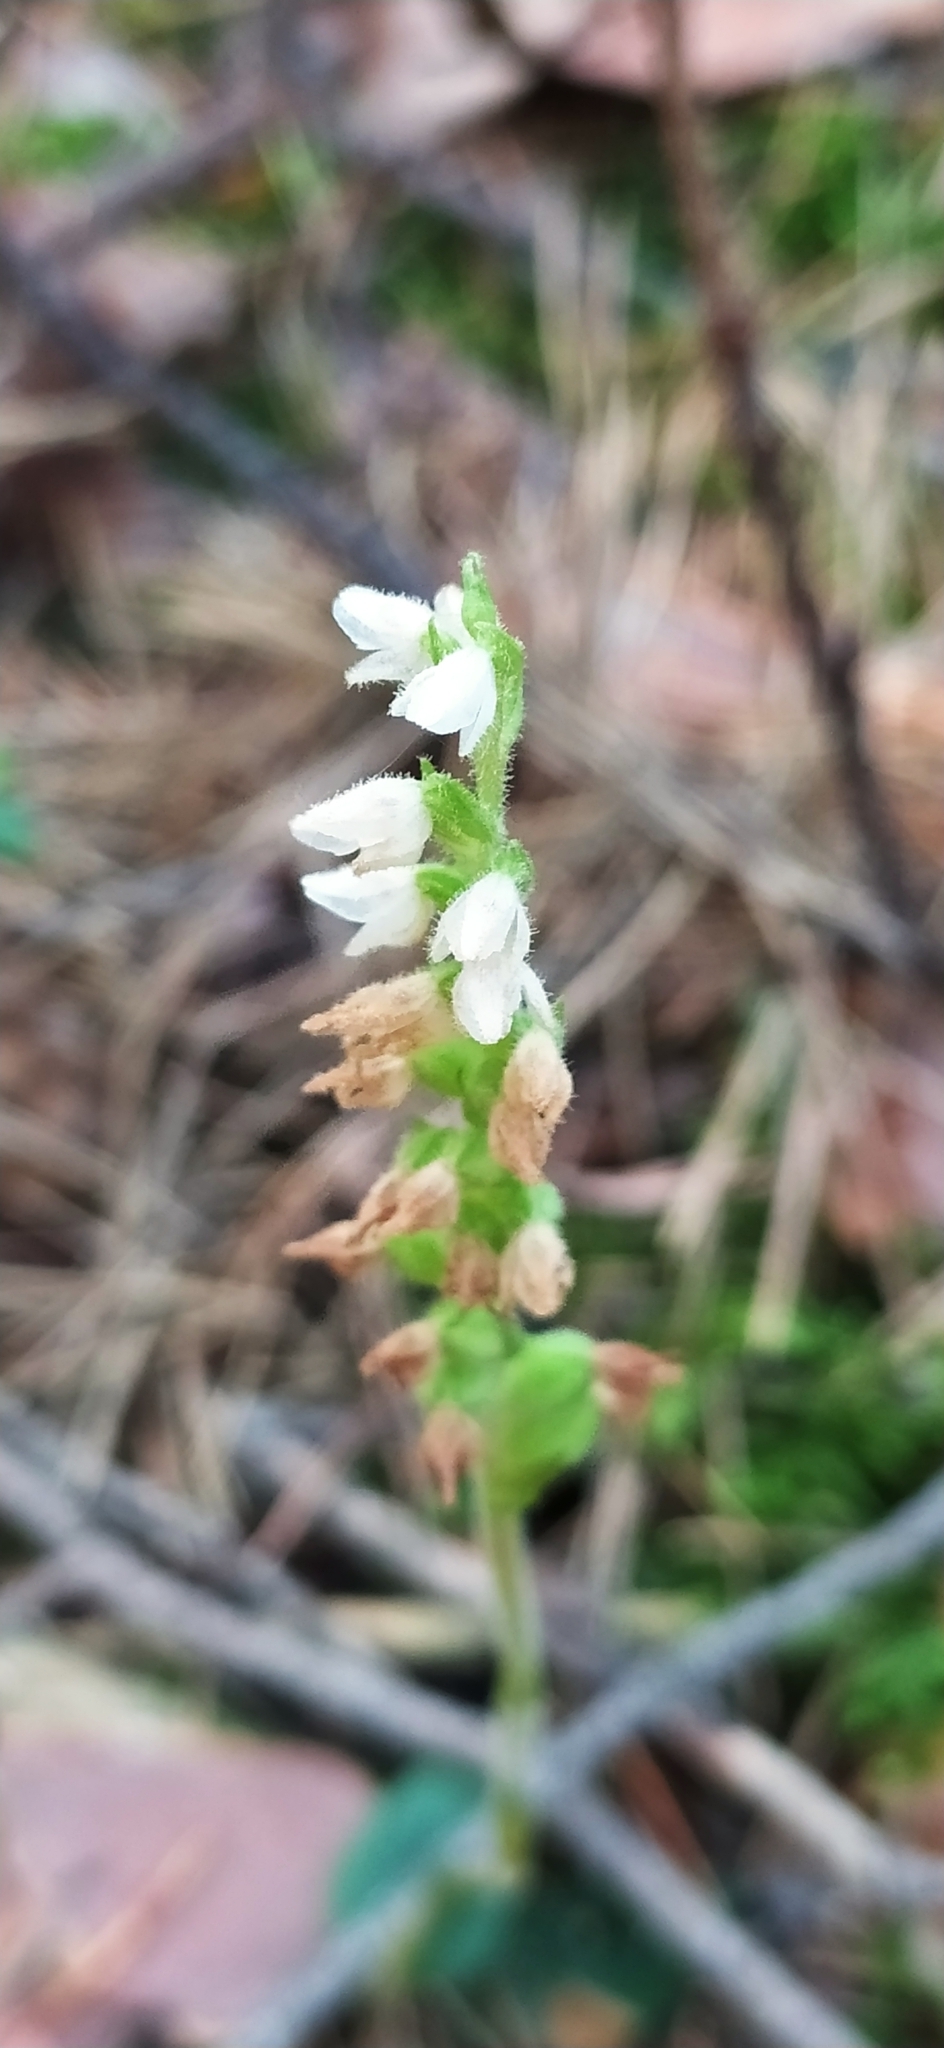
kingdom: Plantae
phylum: Tracheophyta
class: Liliopsida
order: Asparagales
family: Orchidaceae
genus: Goodyera
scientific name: Goodyera repens
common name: Creeping lady's-tresses
